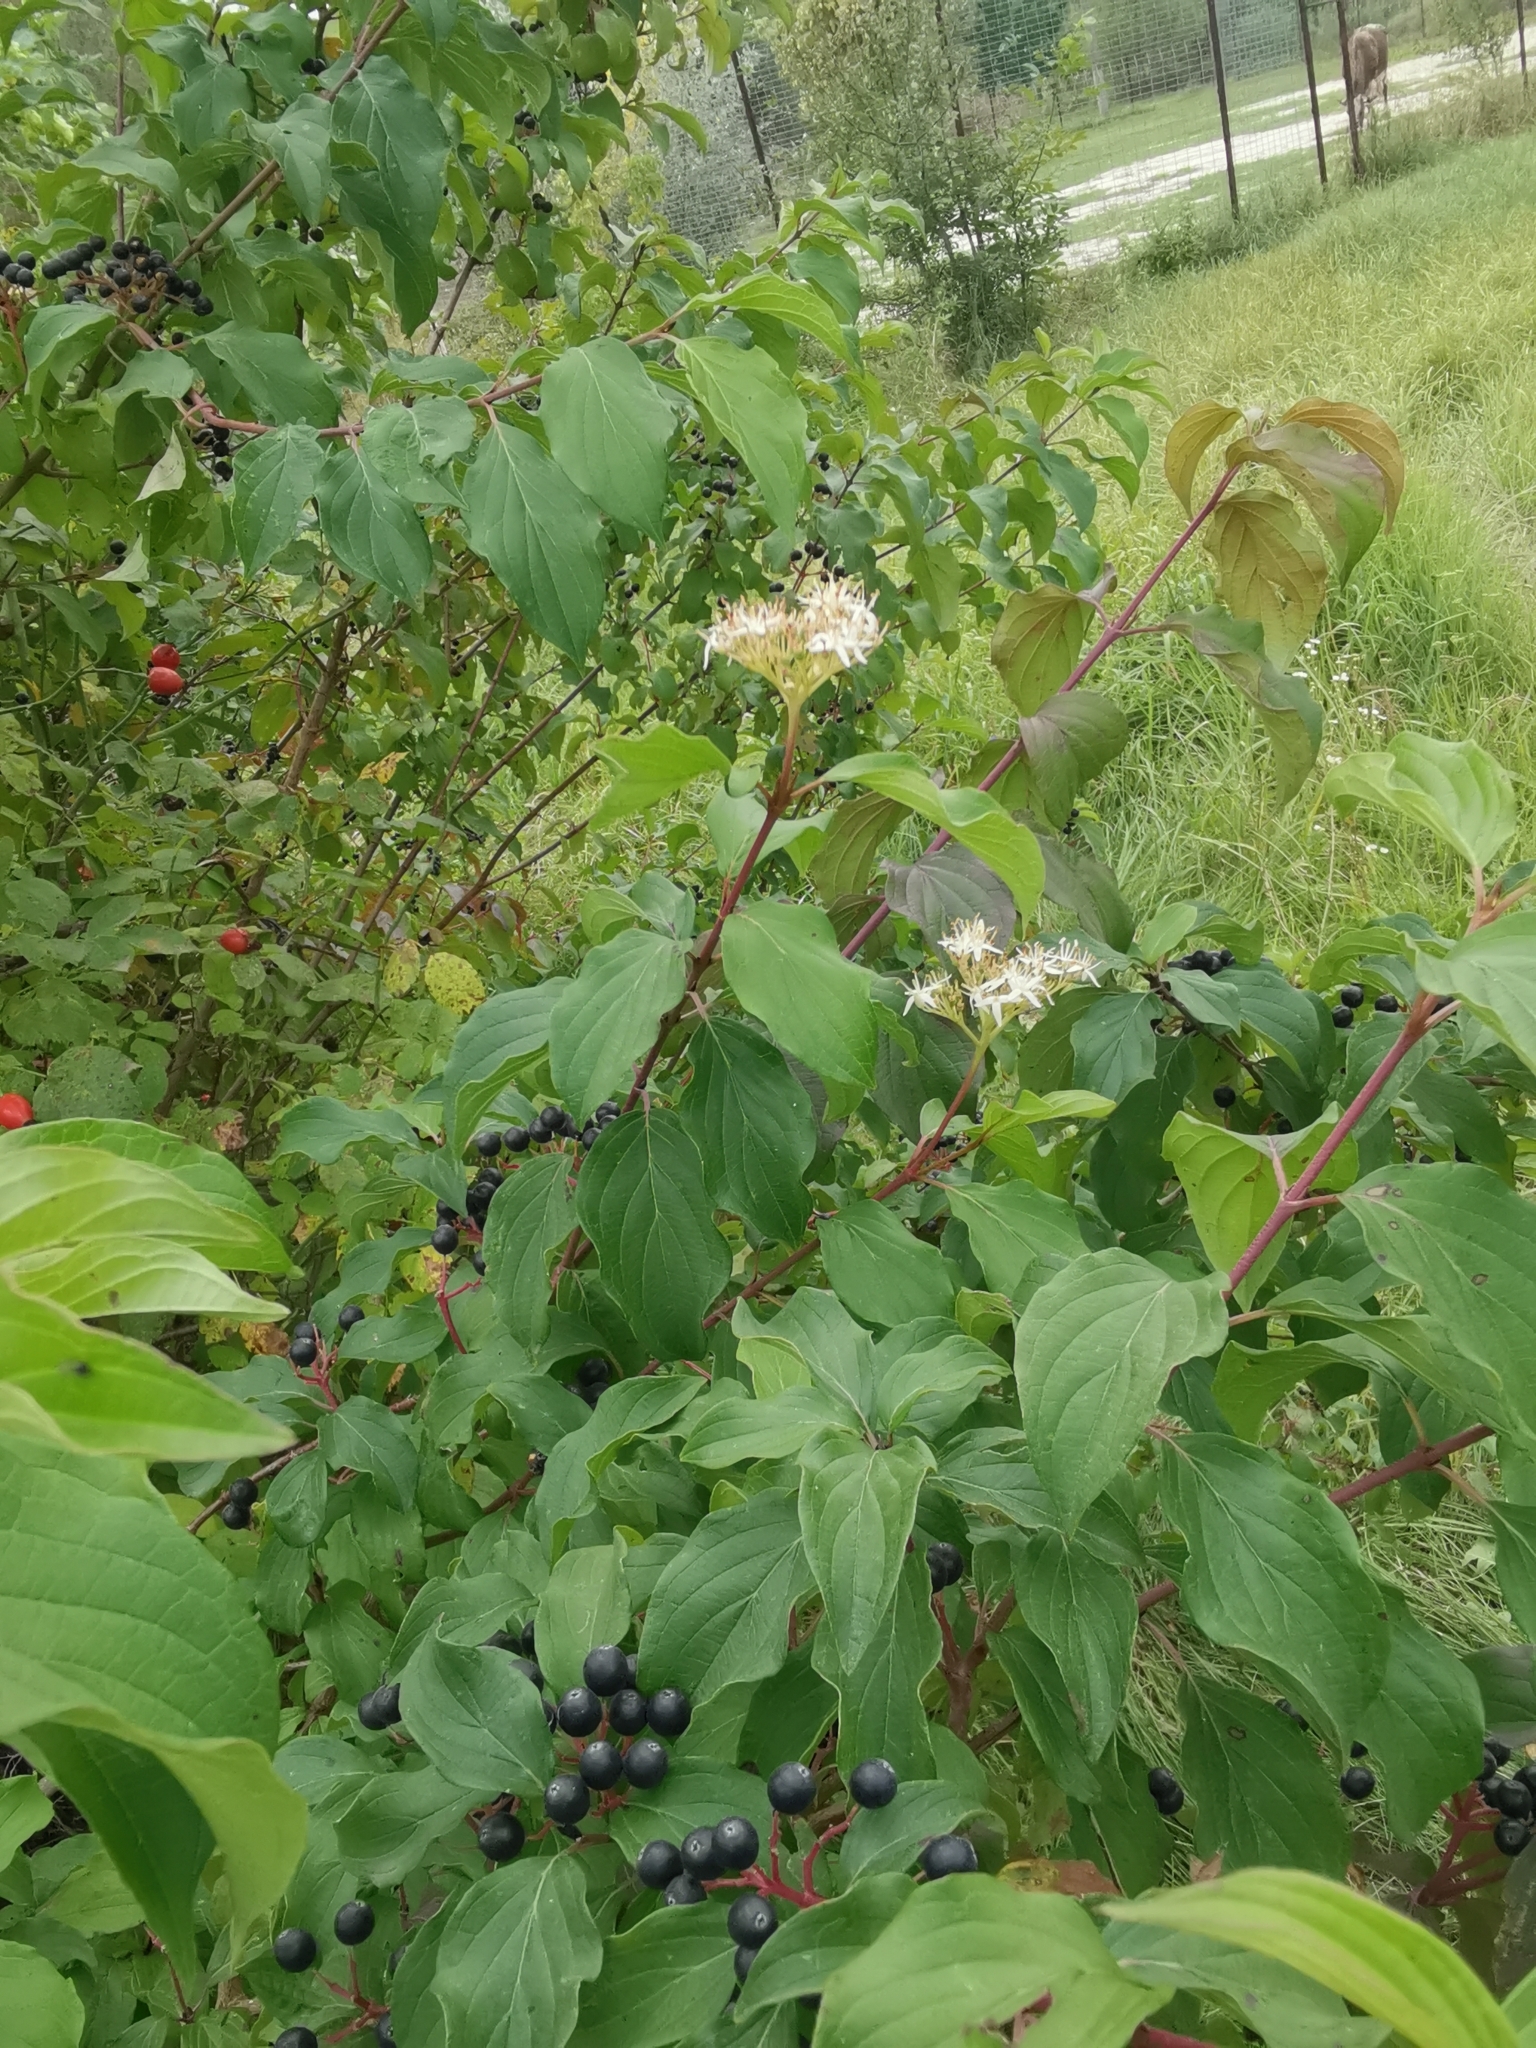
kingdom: Plantae
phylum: Tracheophyta
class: Magnoliopsida
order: Cornales
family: Cornaceae
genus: Cornus
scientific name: Cornus sanguinea
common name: Dogwood
